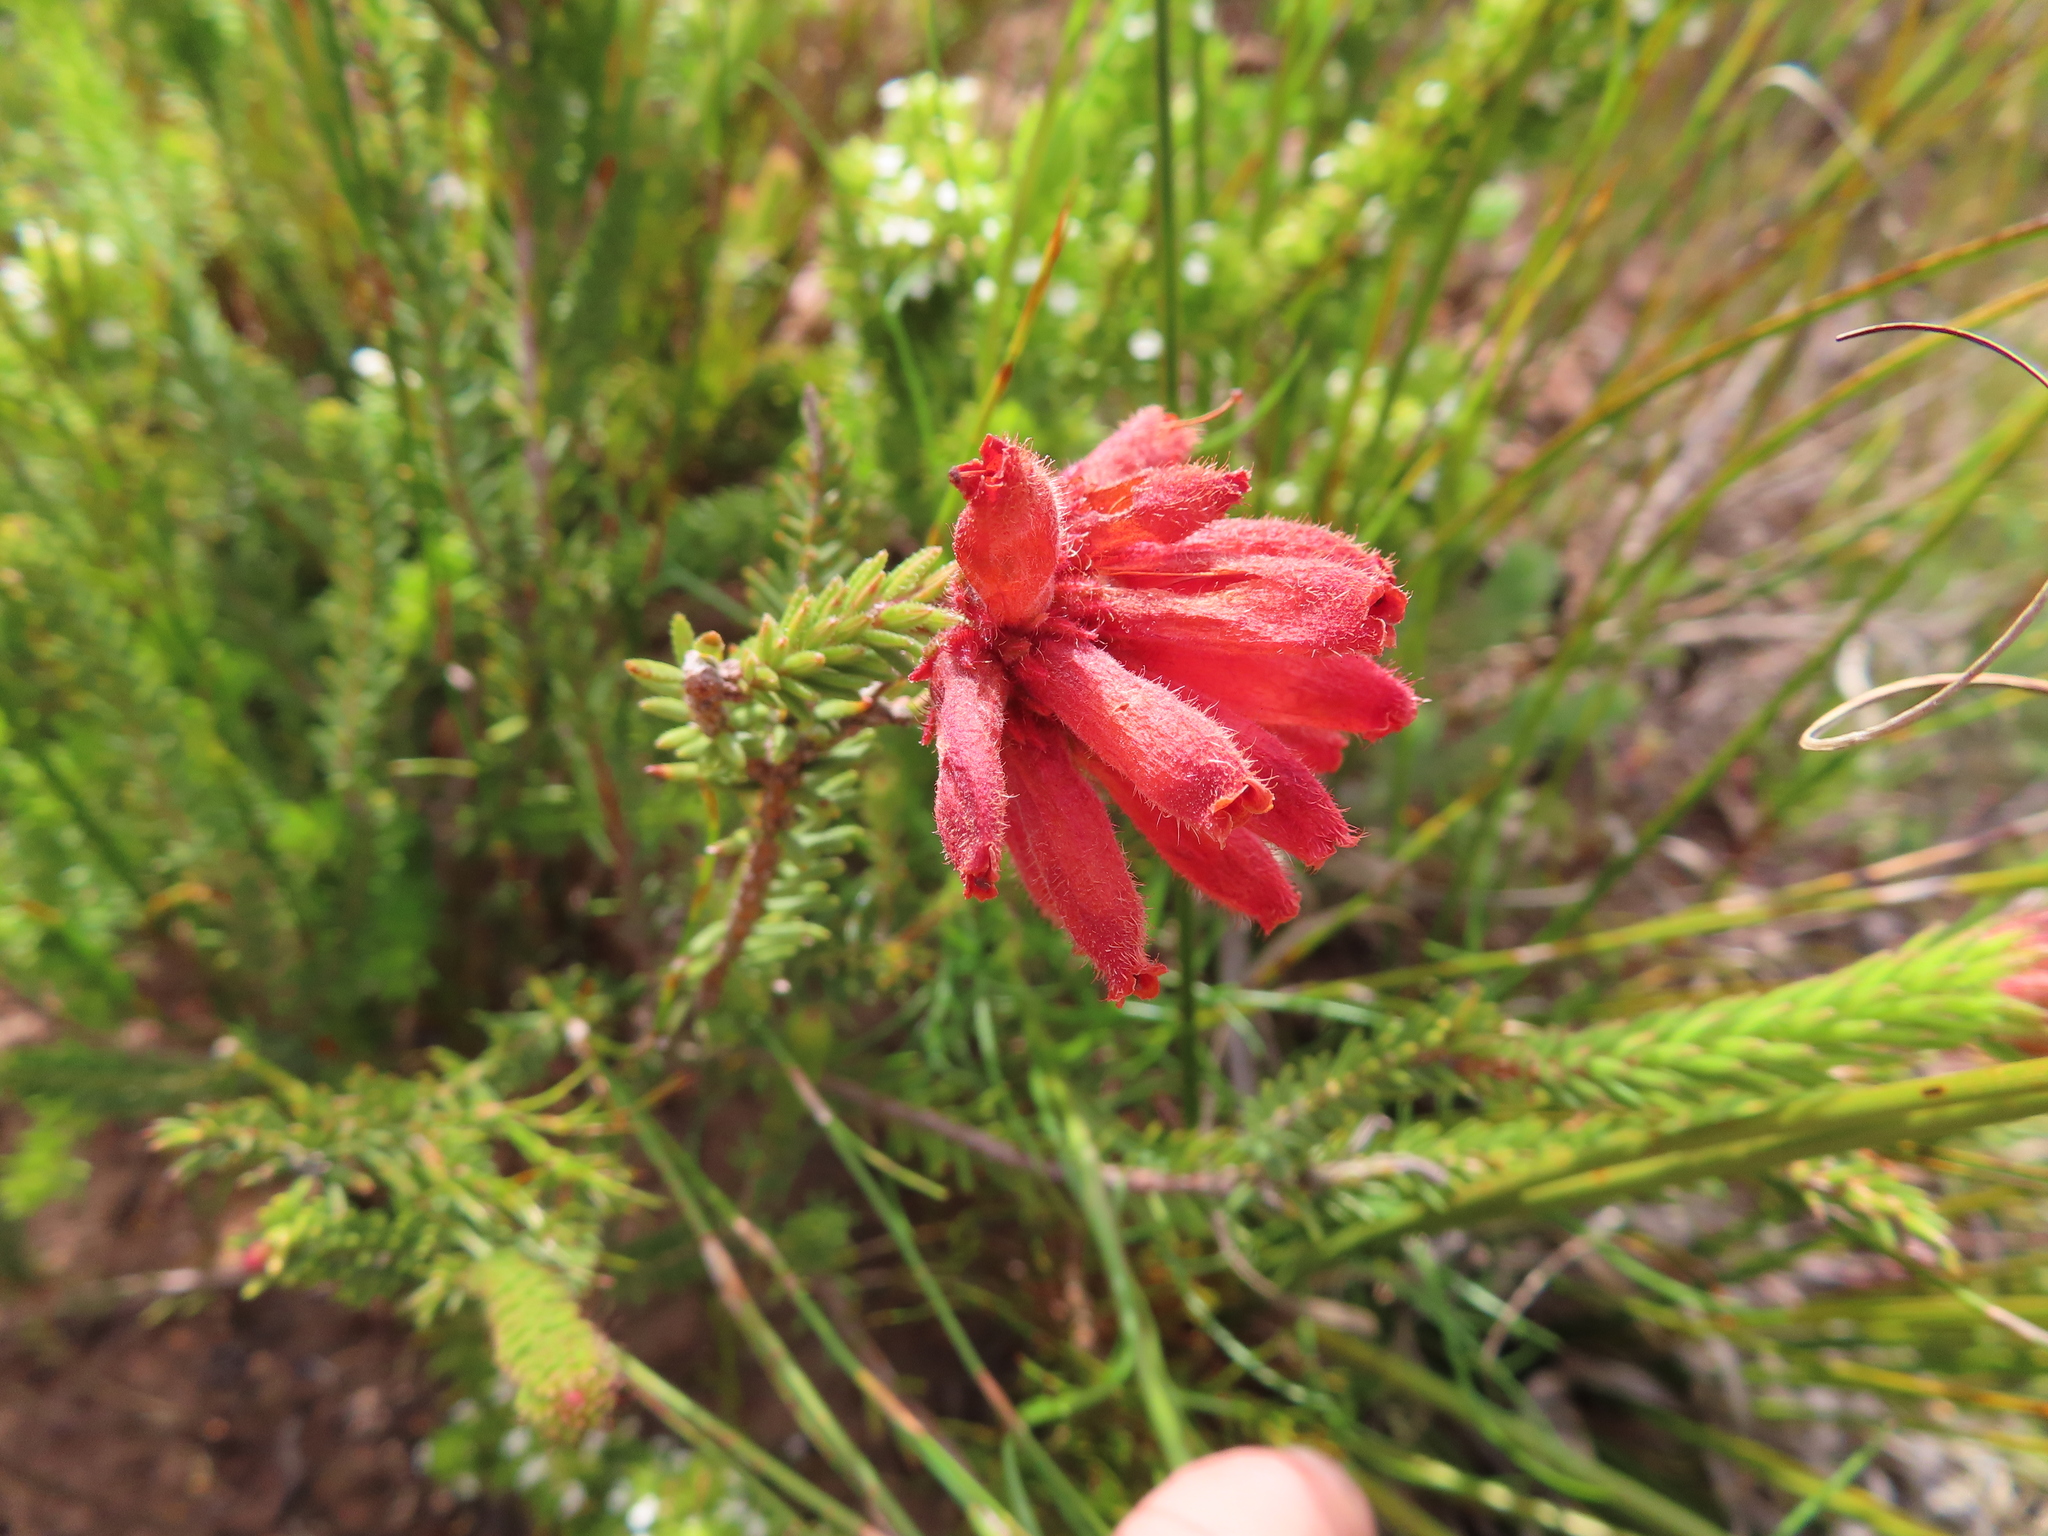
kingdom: Plantae
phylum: Tracheophyta
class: Magnoliopsida
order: Ericales
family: Ericaceae
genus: Erica
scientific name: Erica cerinthoides
